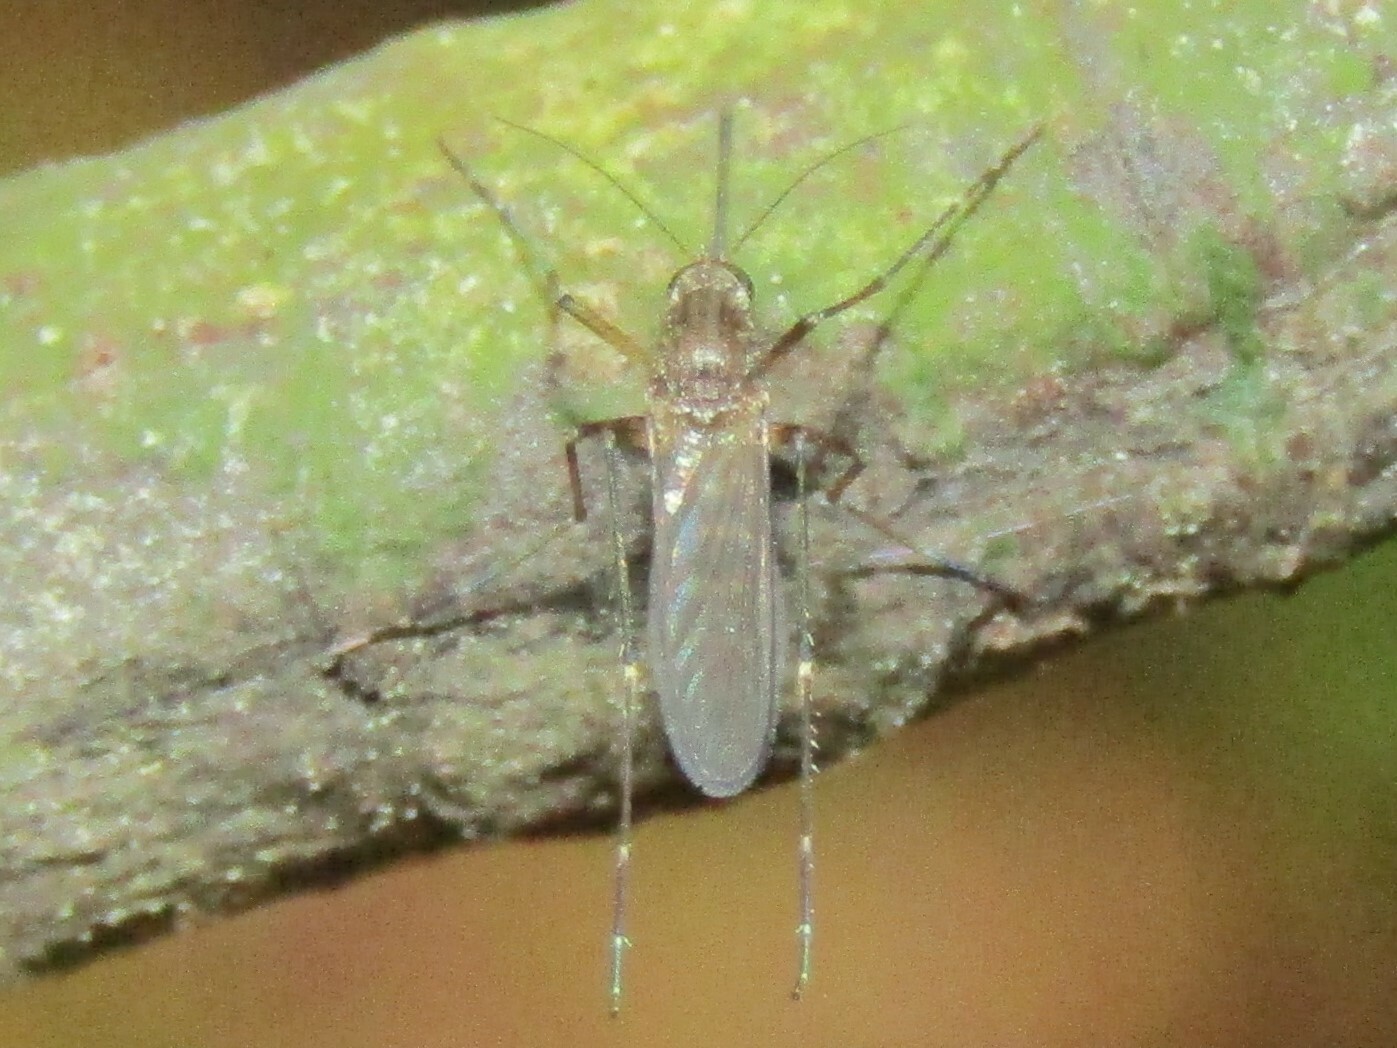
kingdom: Animalia
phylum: Arthropoda
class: Insecta
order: Diptera
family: Culicidae
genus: Aedes
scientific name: Aedes vexans
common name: Inland floodwater mosquito
